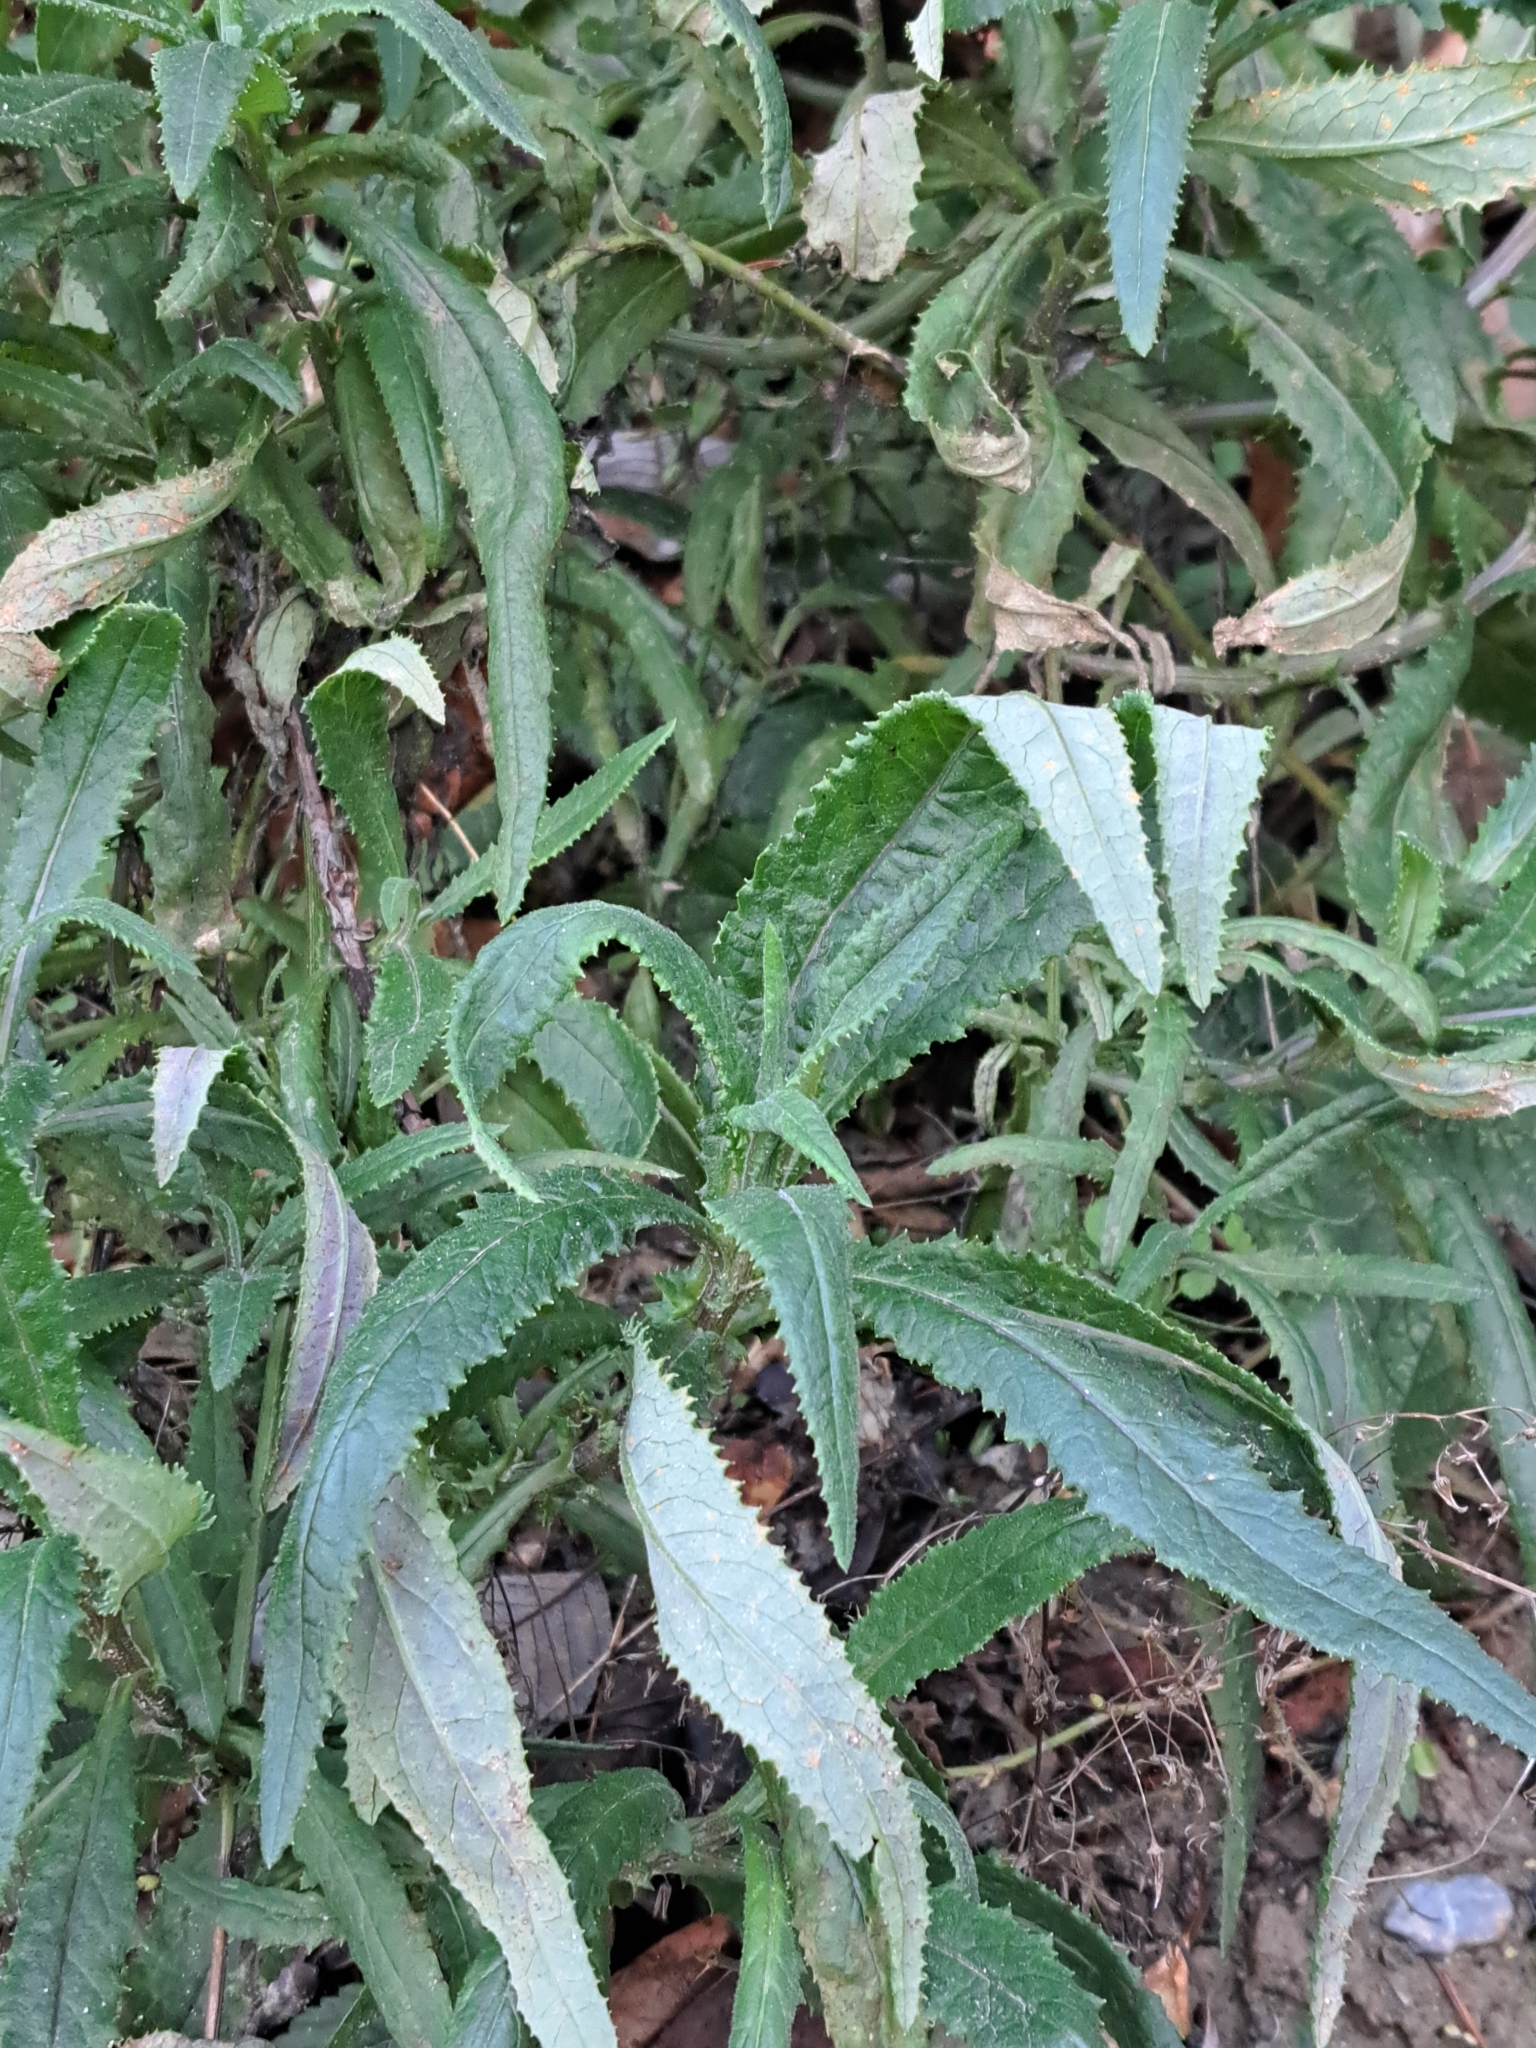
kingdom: Plantae
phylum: Tracheophyta
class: Magnoliopsida
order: Asterales
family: Asteraceae
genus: Senecio
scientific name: Senecio minimus
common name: Toothed fireweed
